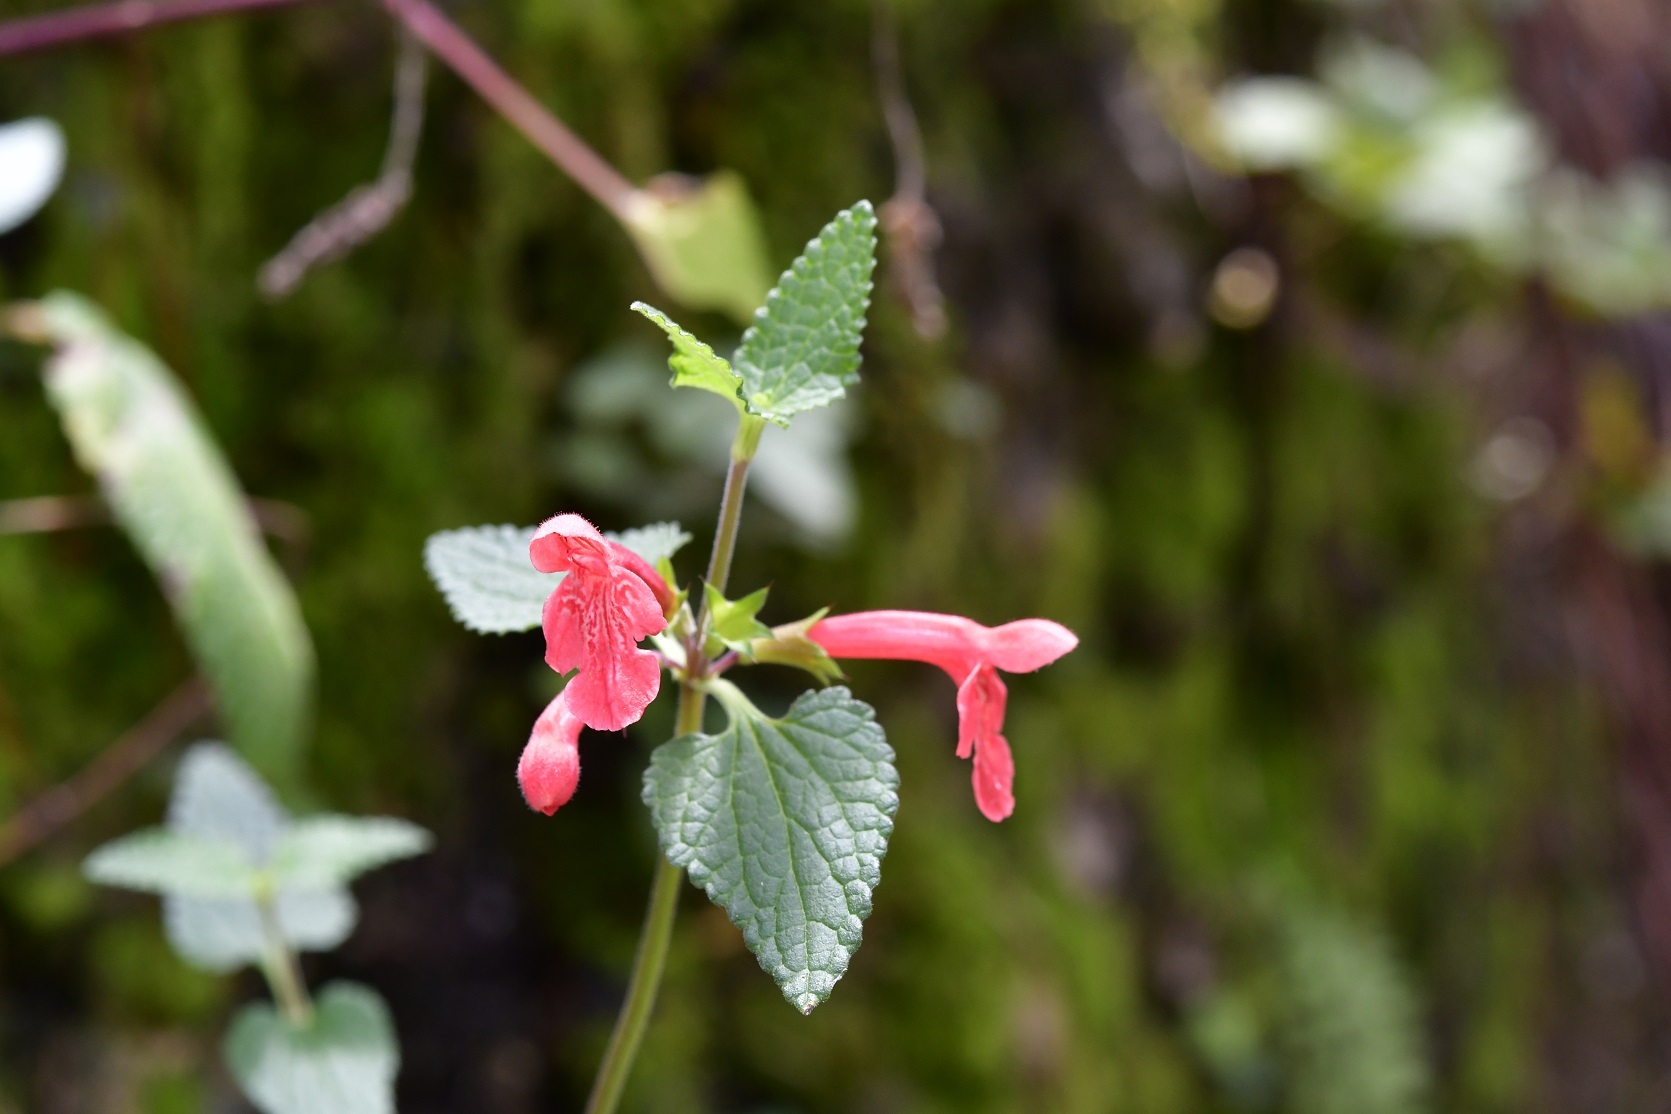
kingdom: Plantae
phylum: Tracheophyta
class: Magnoliopsida
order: Lamiales
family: Lamiaceae
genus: Stachys
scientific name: Stachys coccinea
